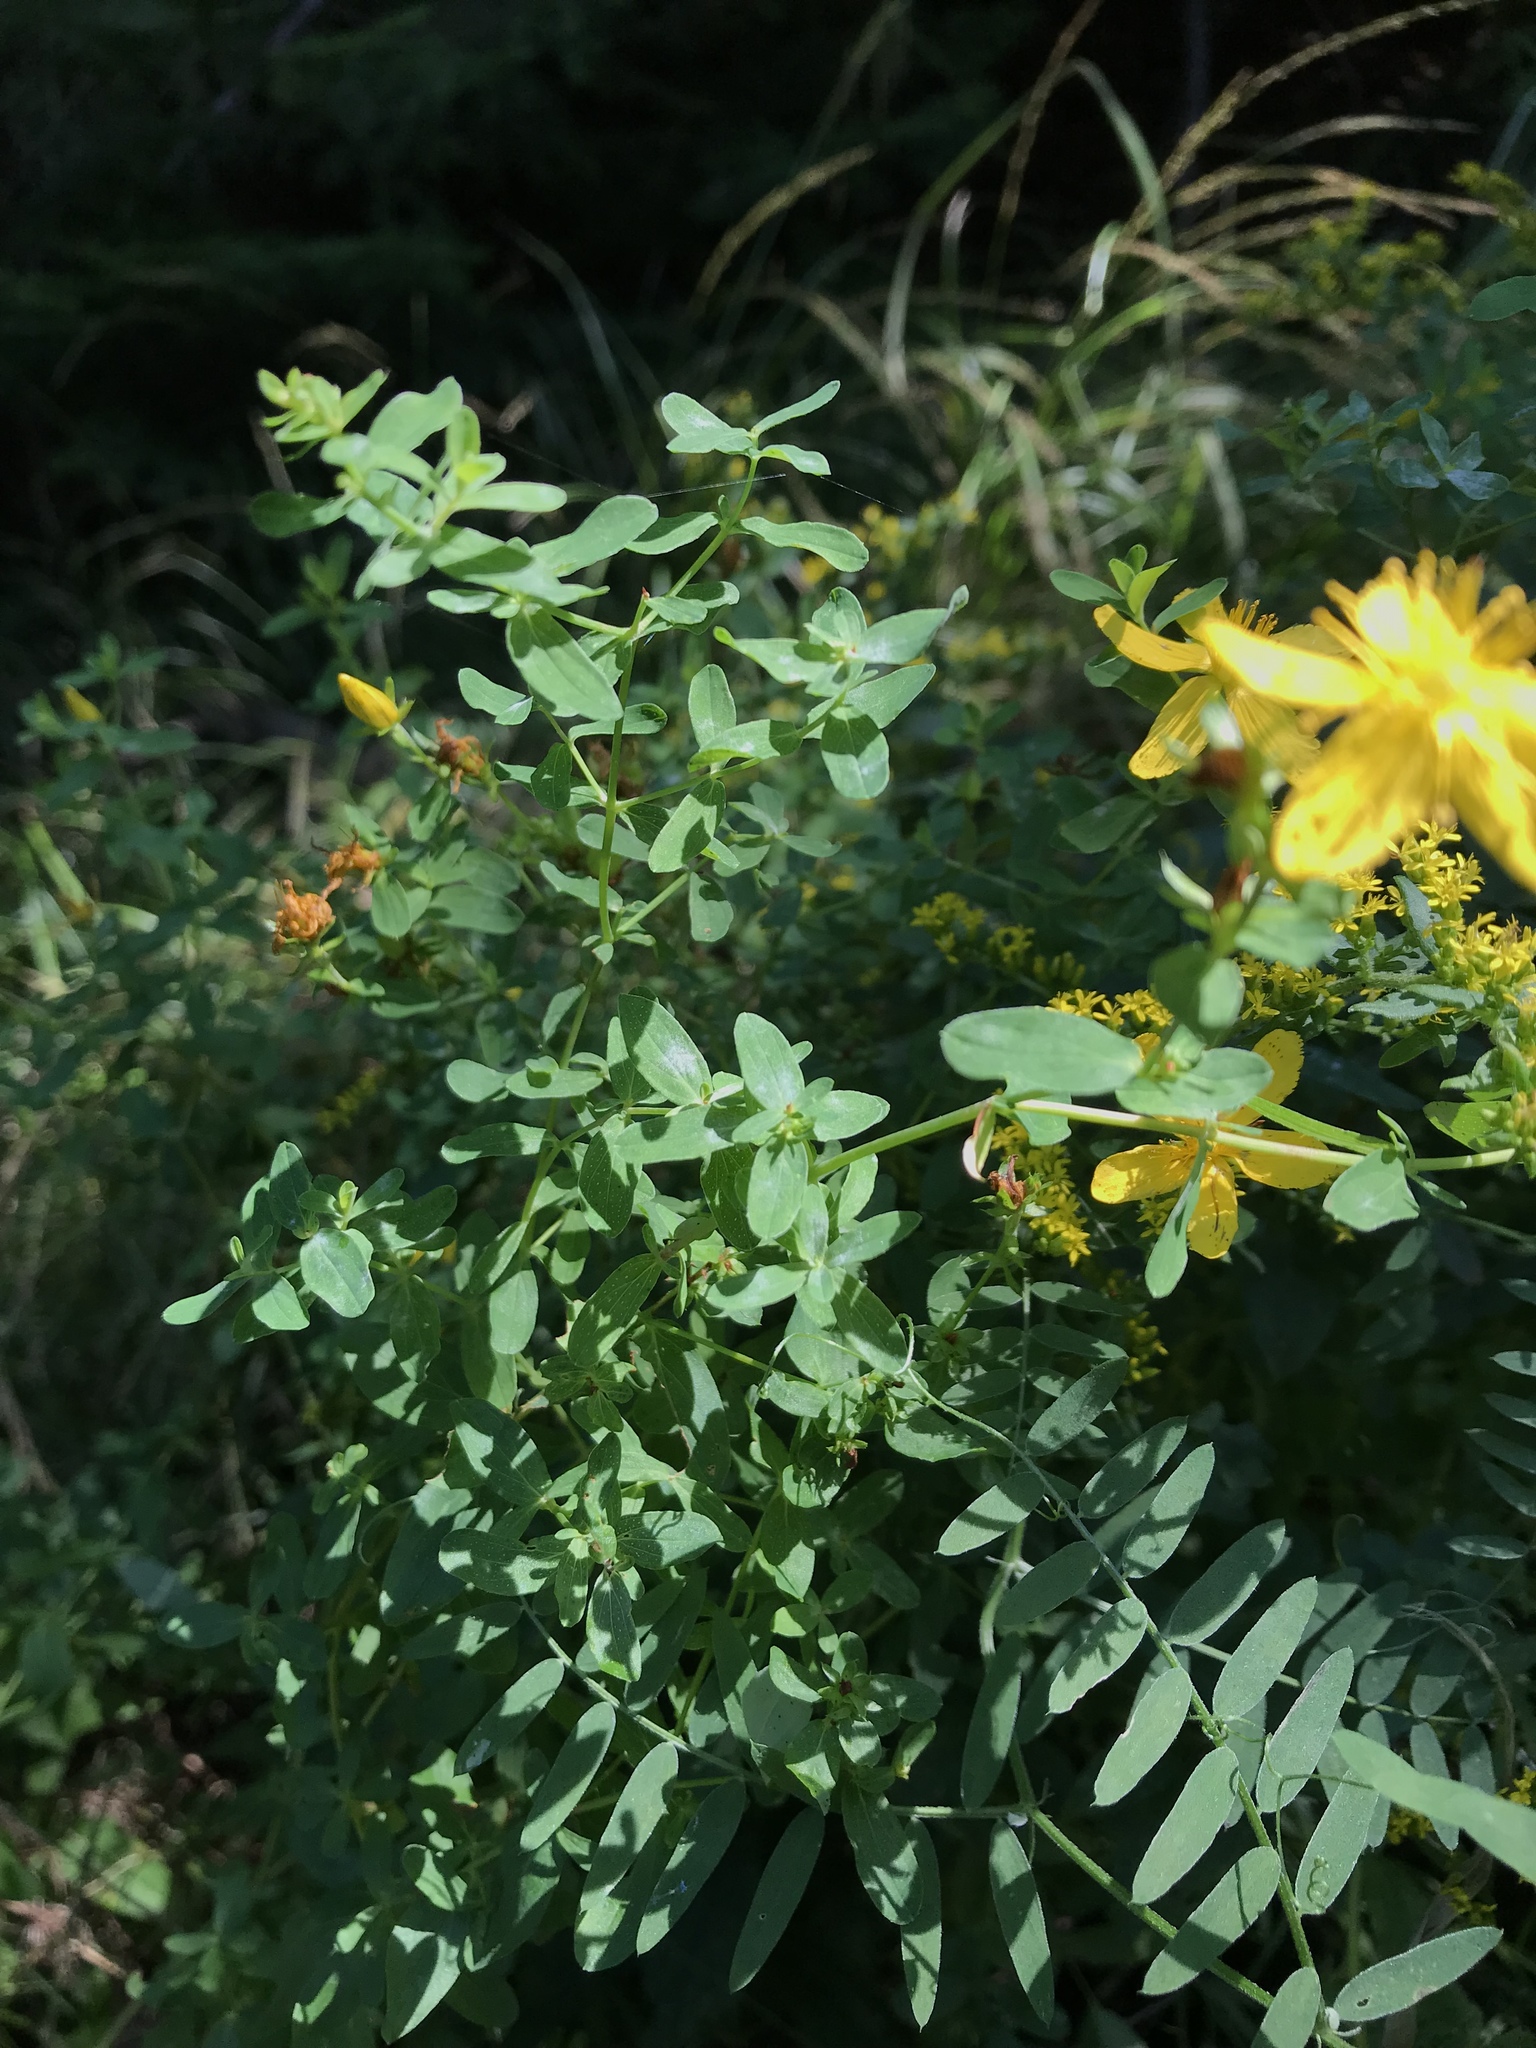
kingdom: Plantae
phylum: Tracheophyta
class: Magnoliopsida
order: Malpighiales
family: Hypericaceae
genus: Hypericum
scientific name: Hypericum perforatum
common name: Common st. johnswort
